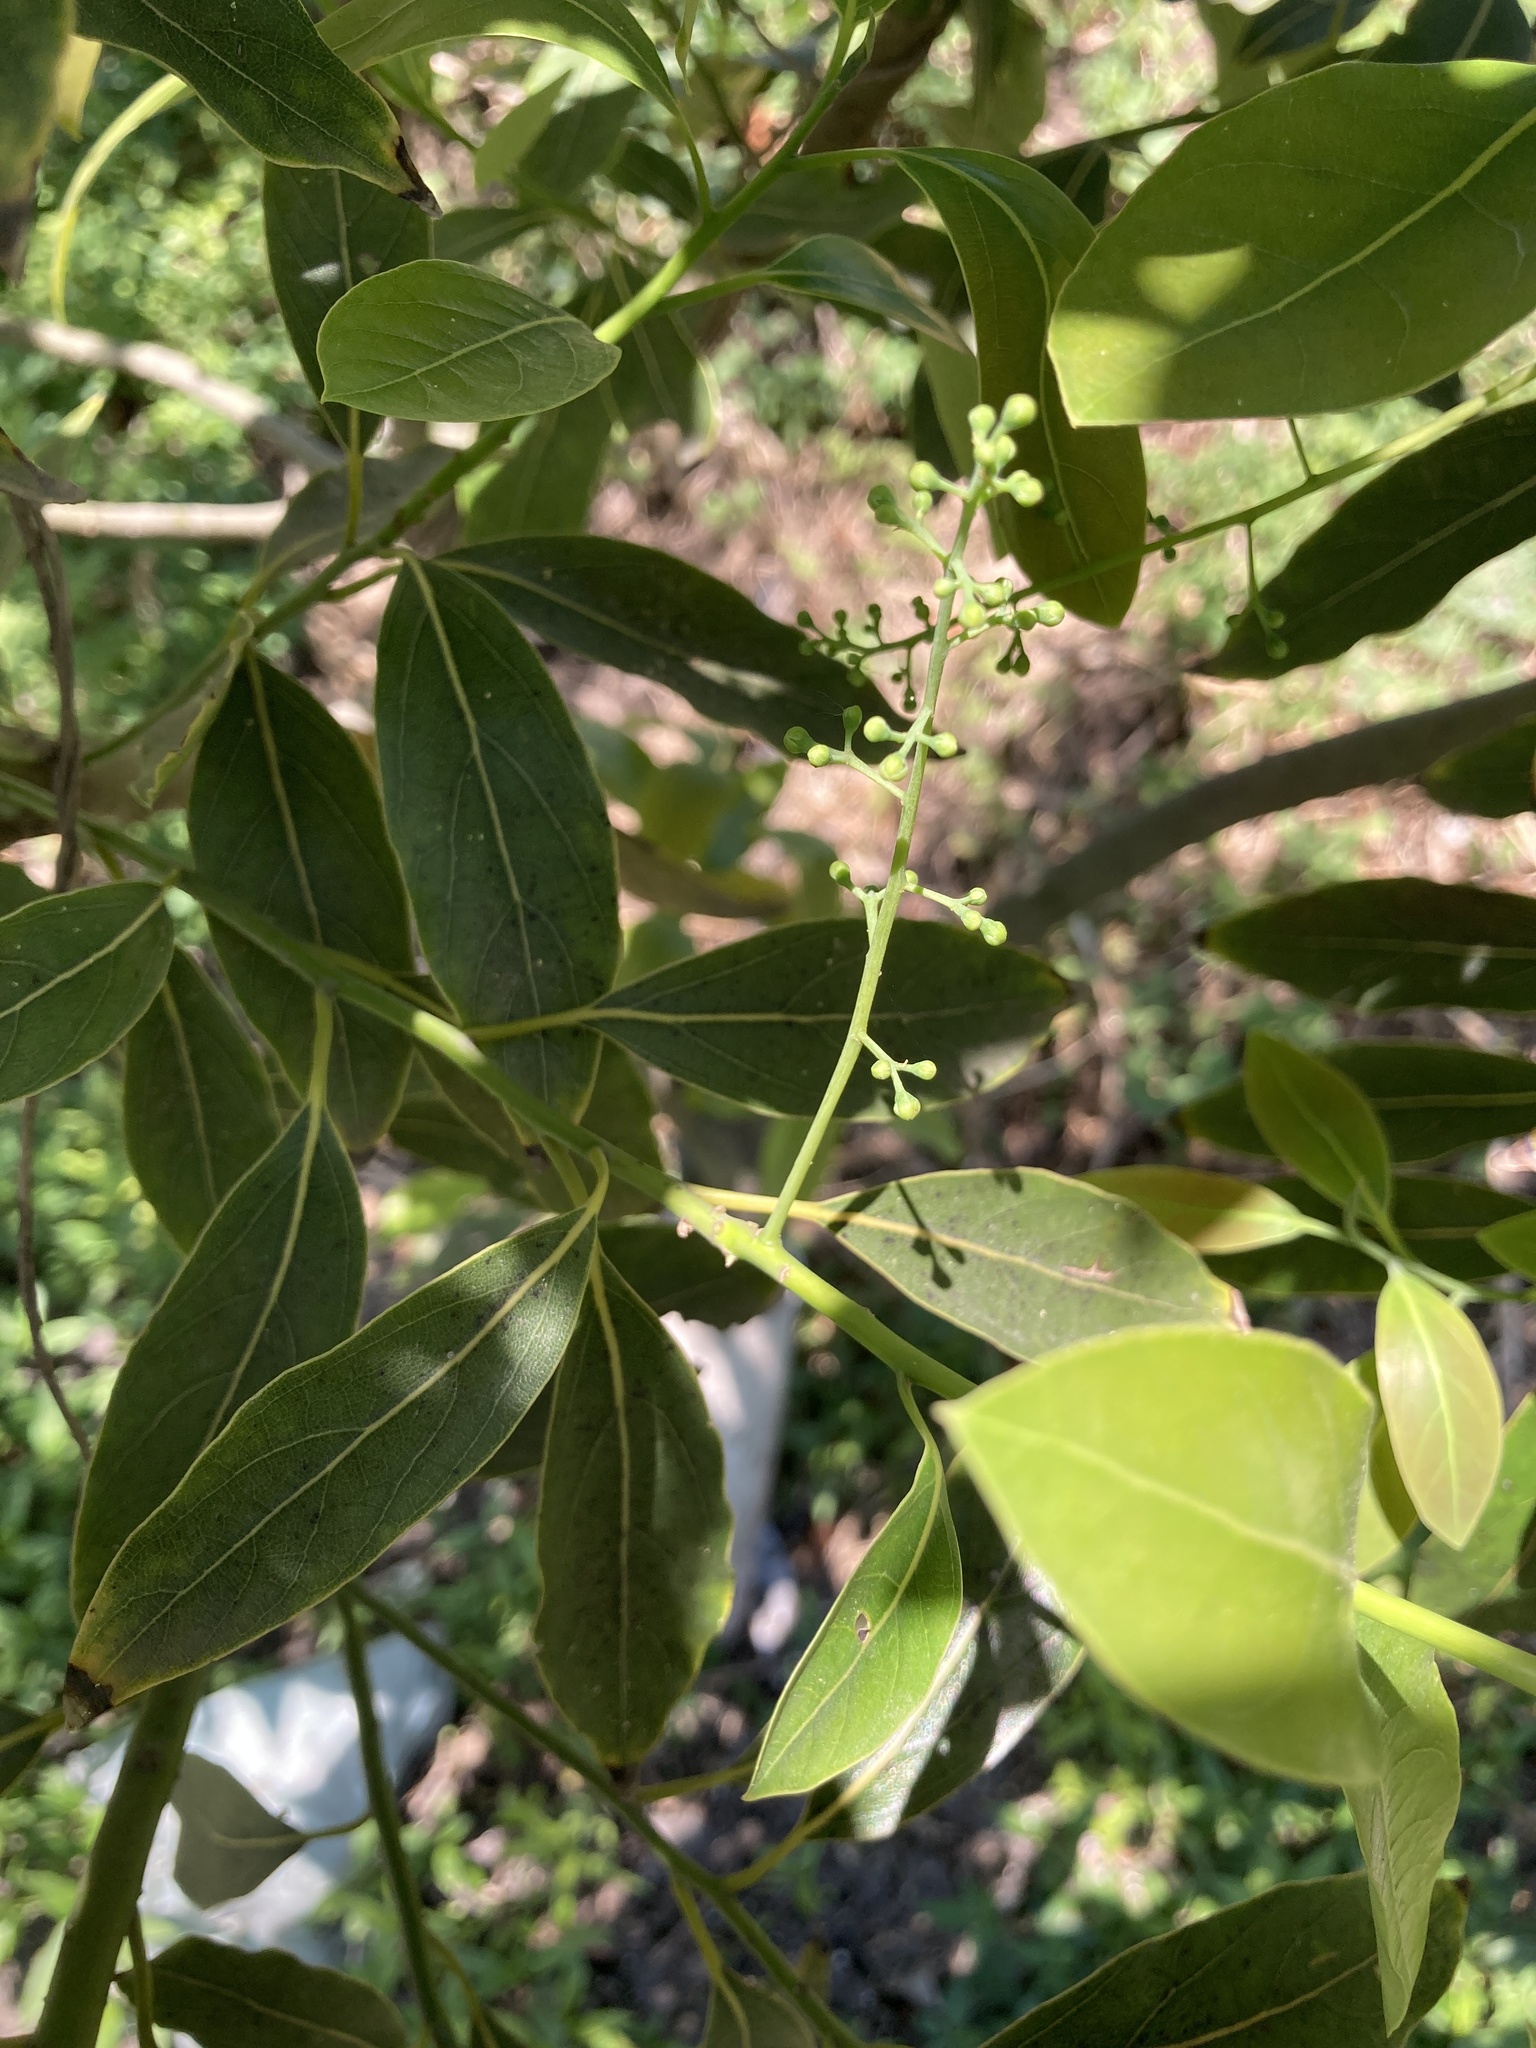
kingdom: Plantae
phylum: Tracheophyta
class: Magnoliopsida
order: Laurales
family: Lauraceae
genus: Ocotea
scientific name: Ocotea acutifolia
